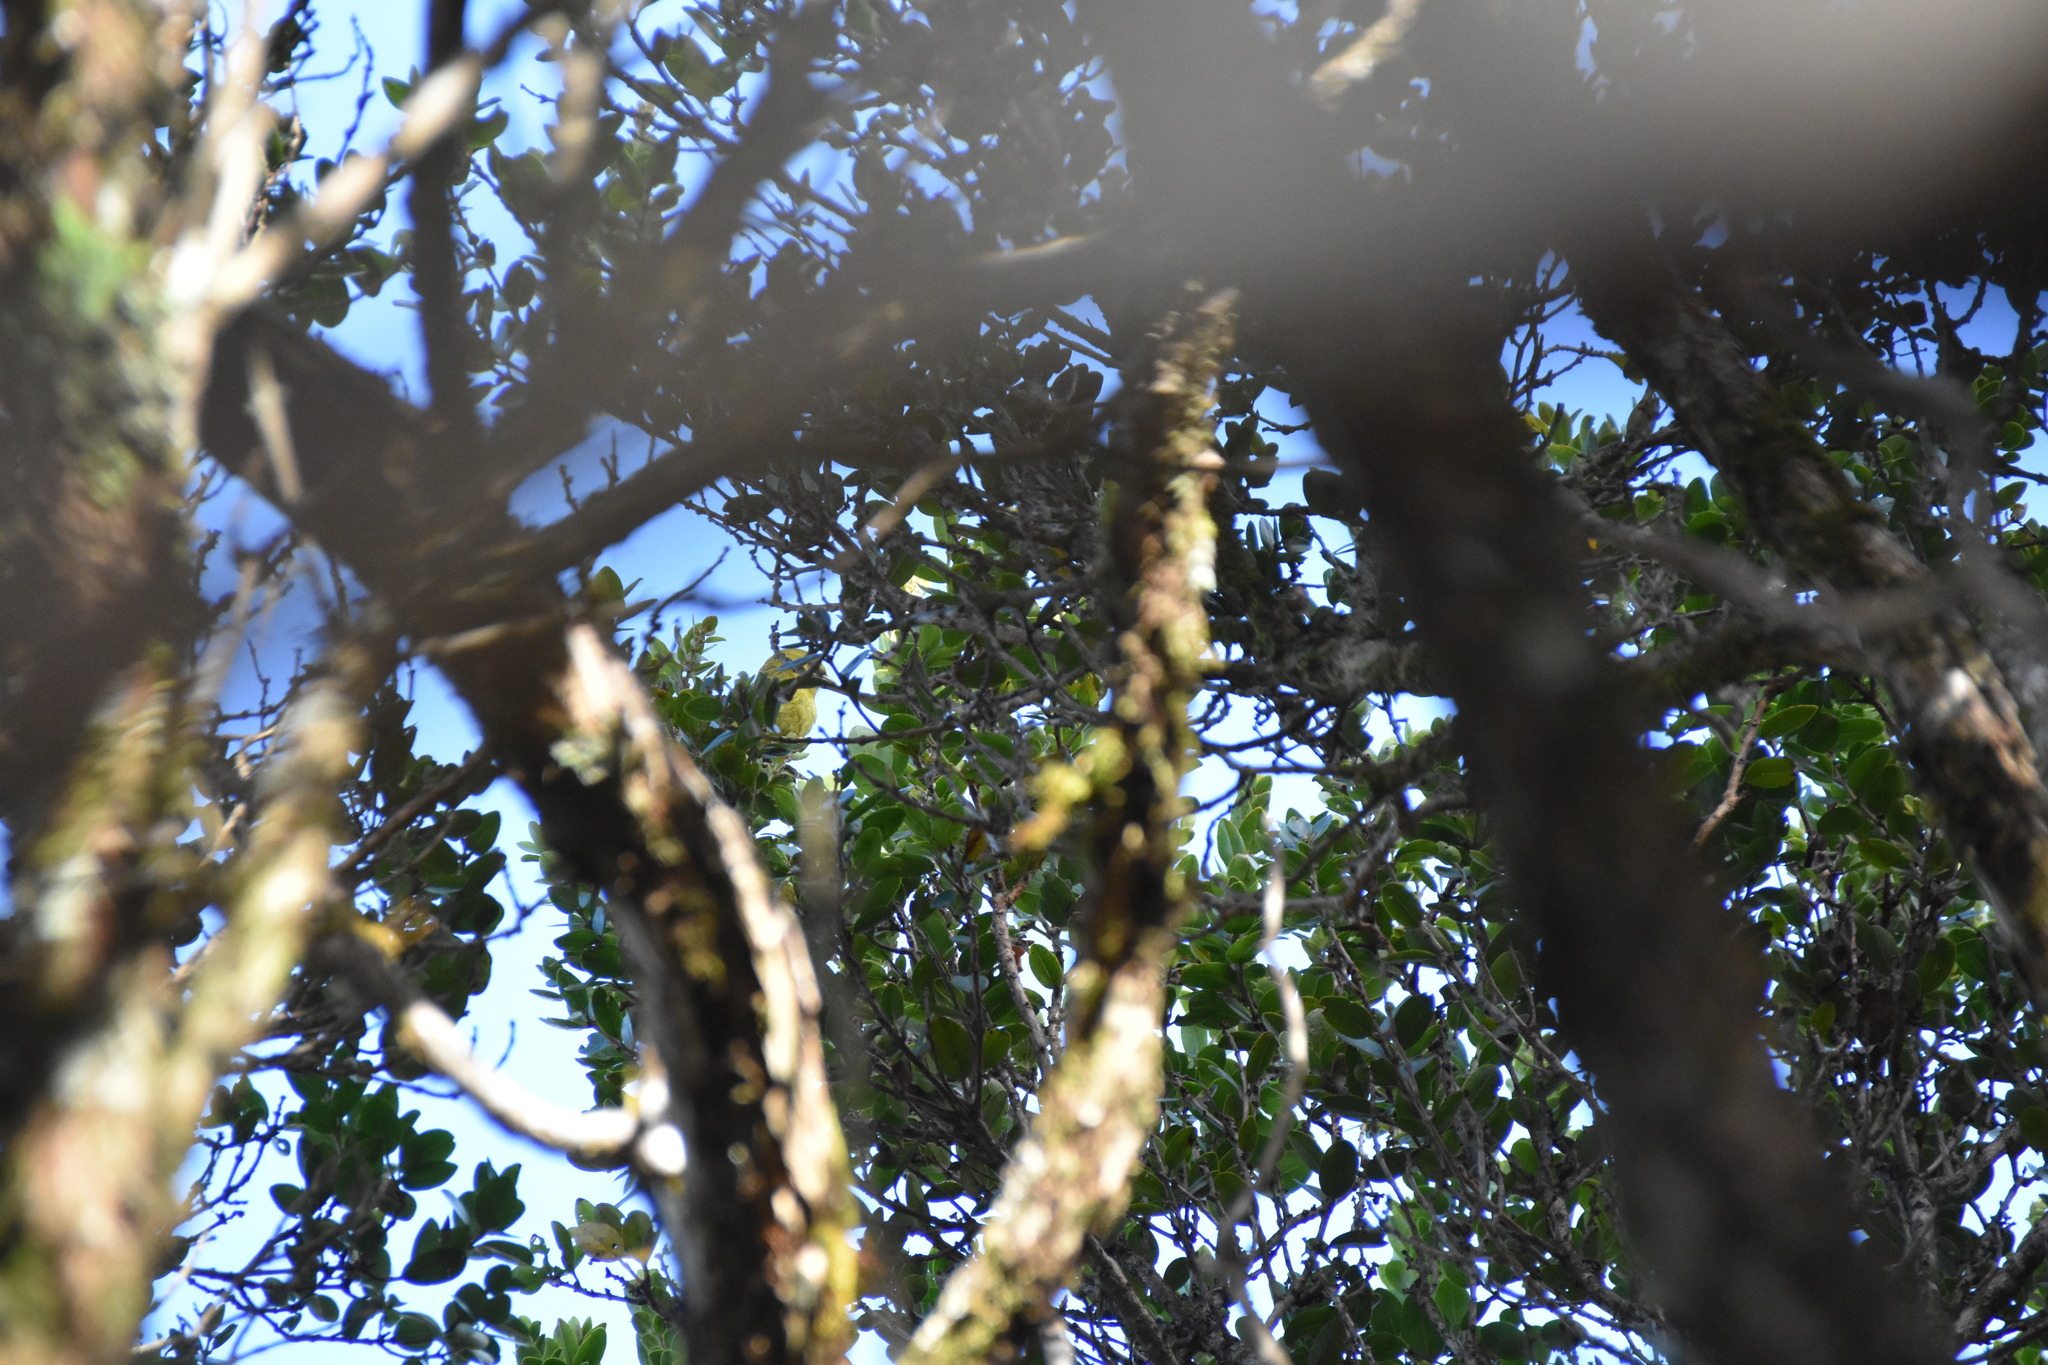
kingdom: Animalia
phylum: Chordata
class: Aves
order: Passeriformes
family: Fringillidae
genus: Loxops
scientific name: Loxops caeruleirostris
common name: Akekee
